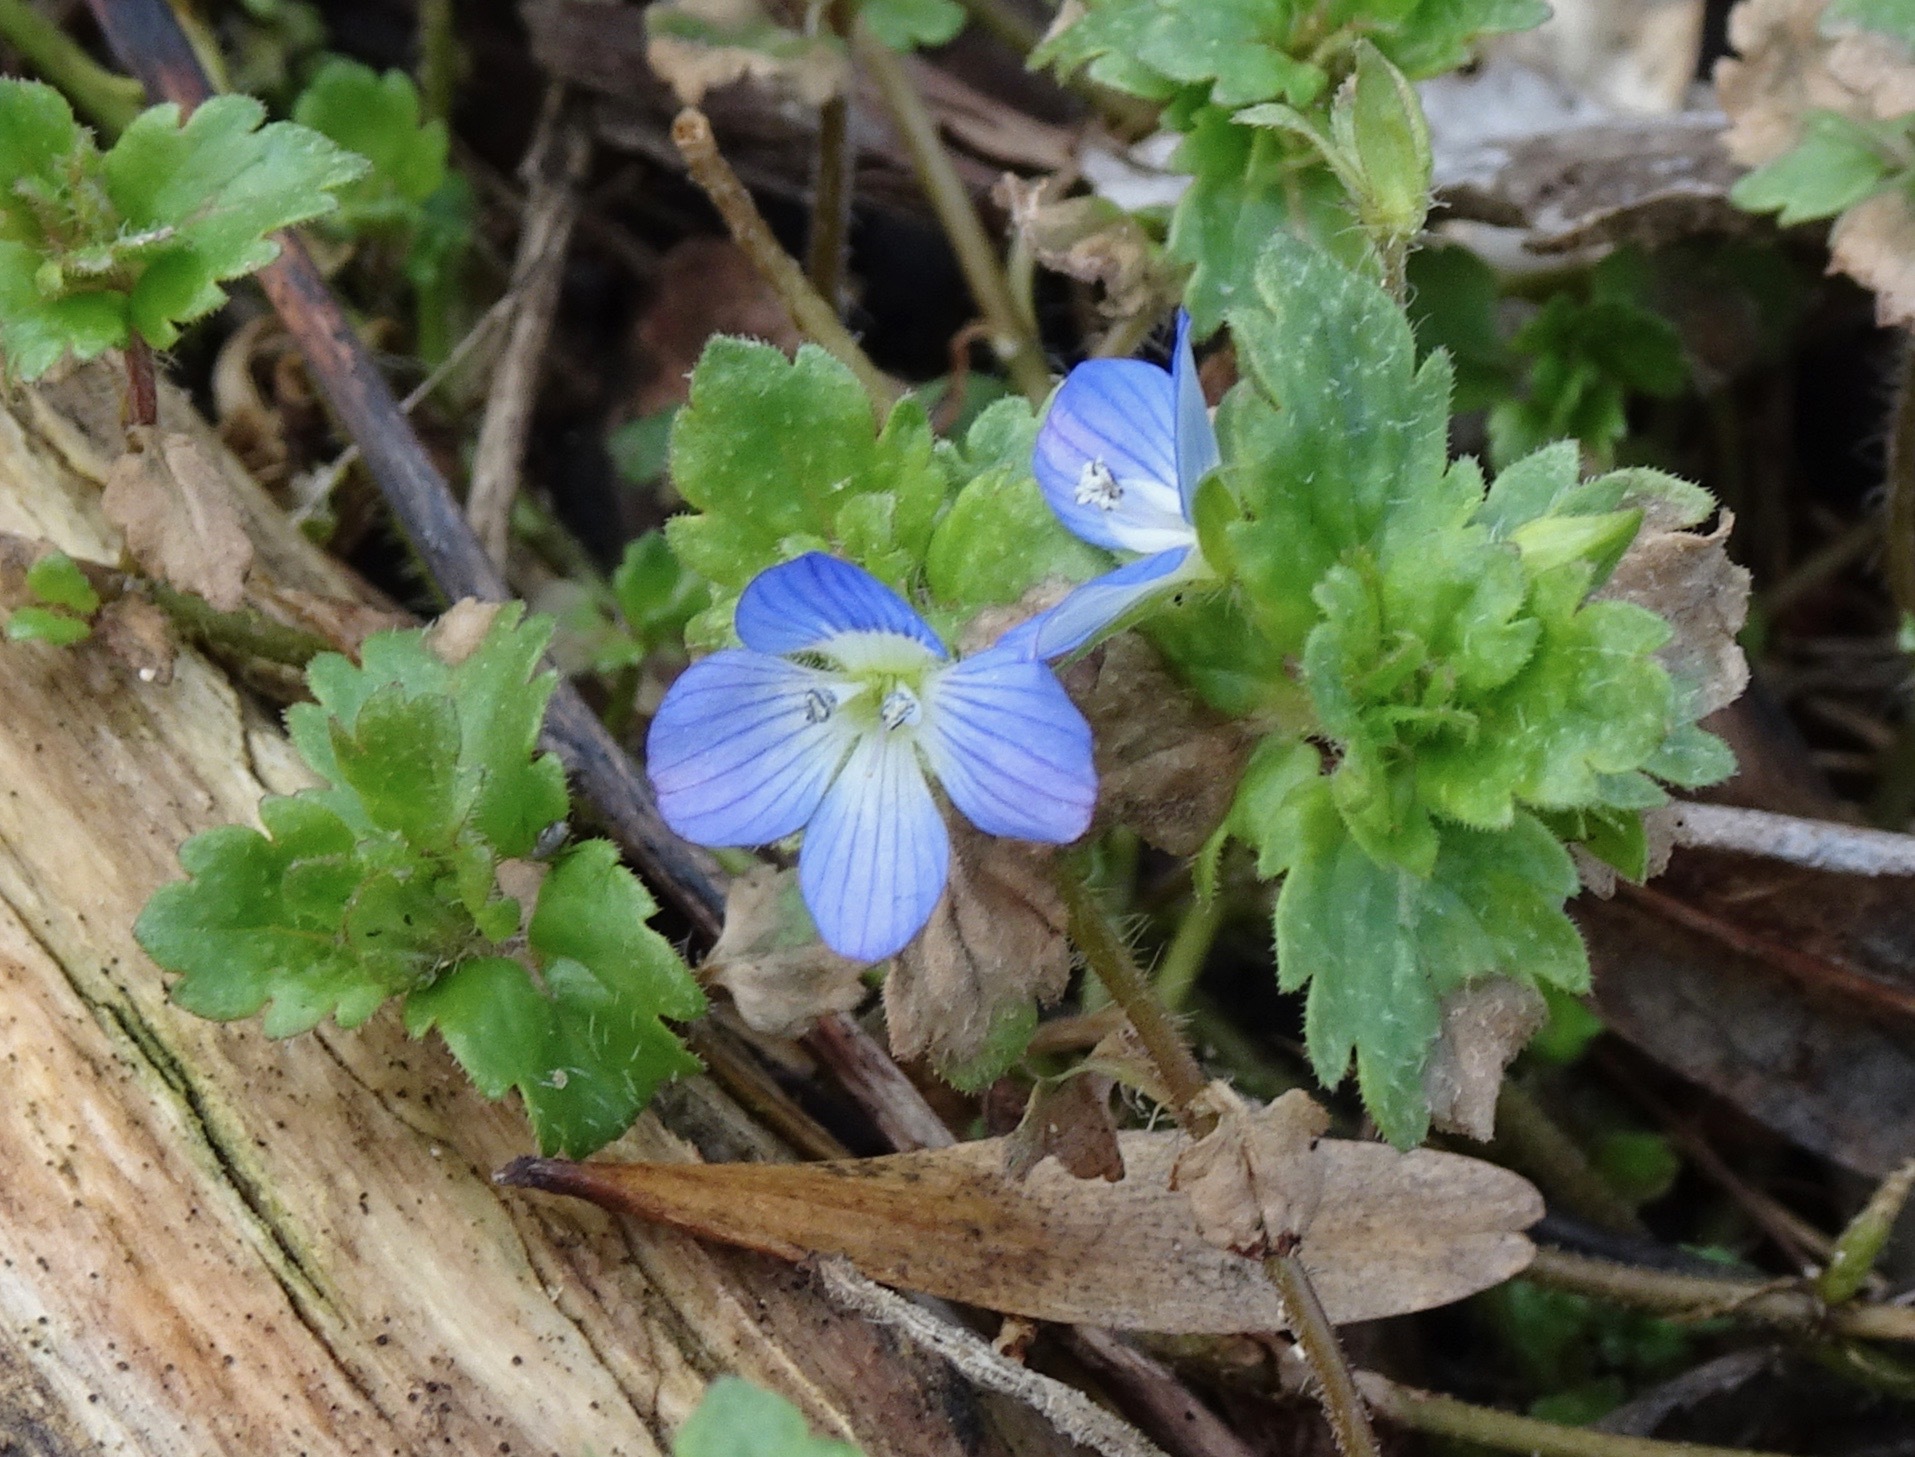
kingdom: Plantae
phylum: Tracheophyta
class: Magnoliopsida
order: Lamiales
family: Plantaginaceae
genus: Veronica
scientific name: Veronica persica
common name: Common field-speedwell
